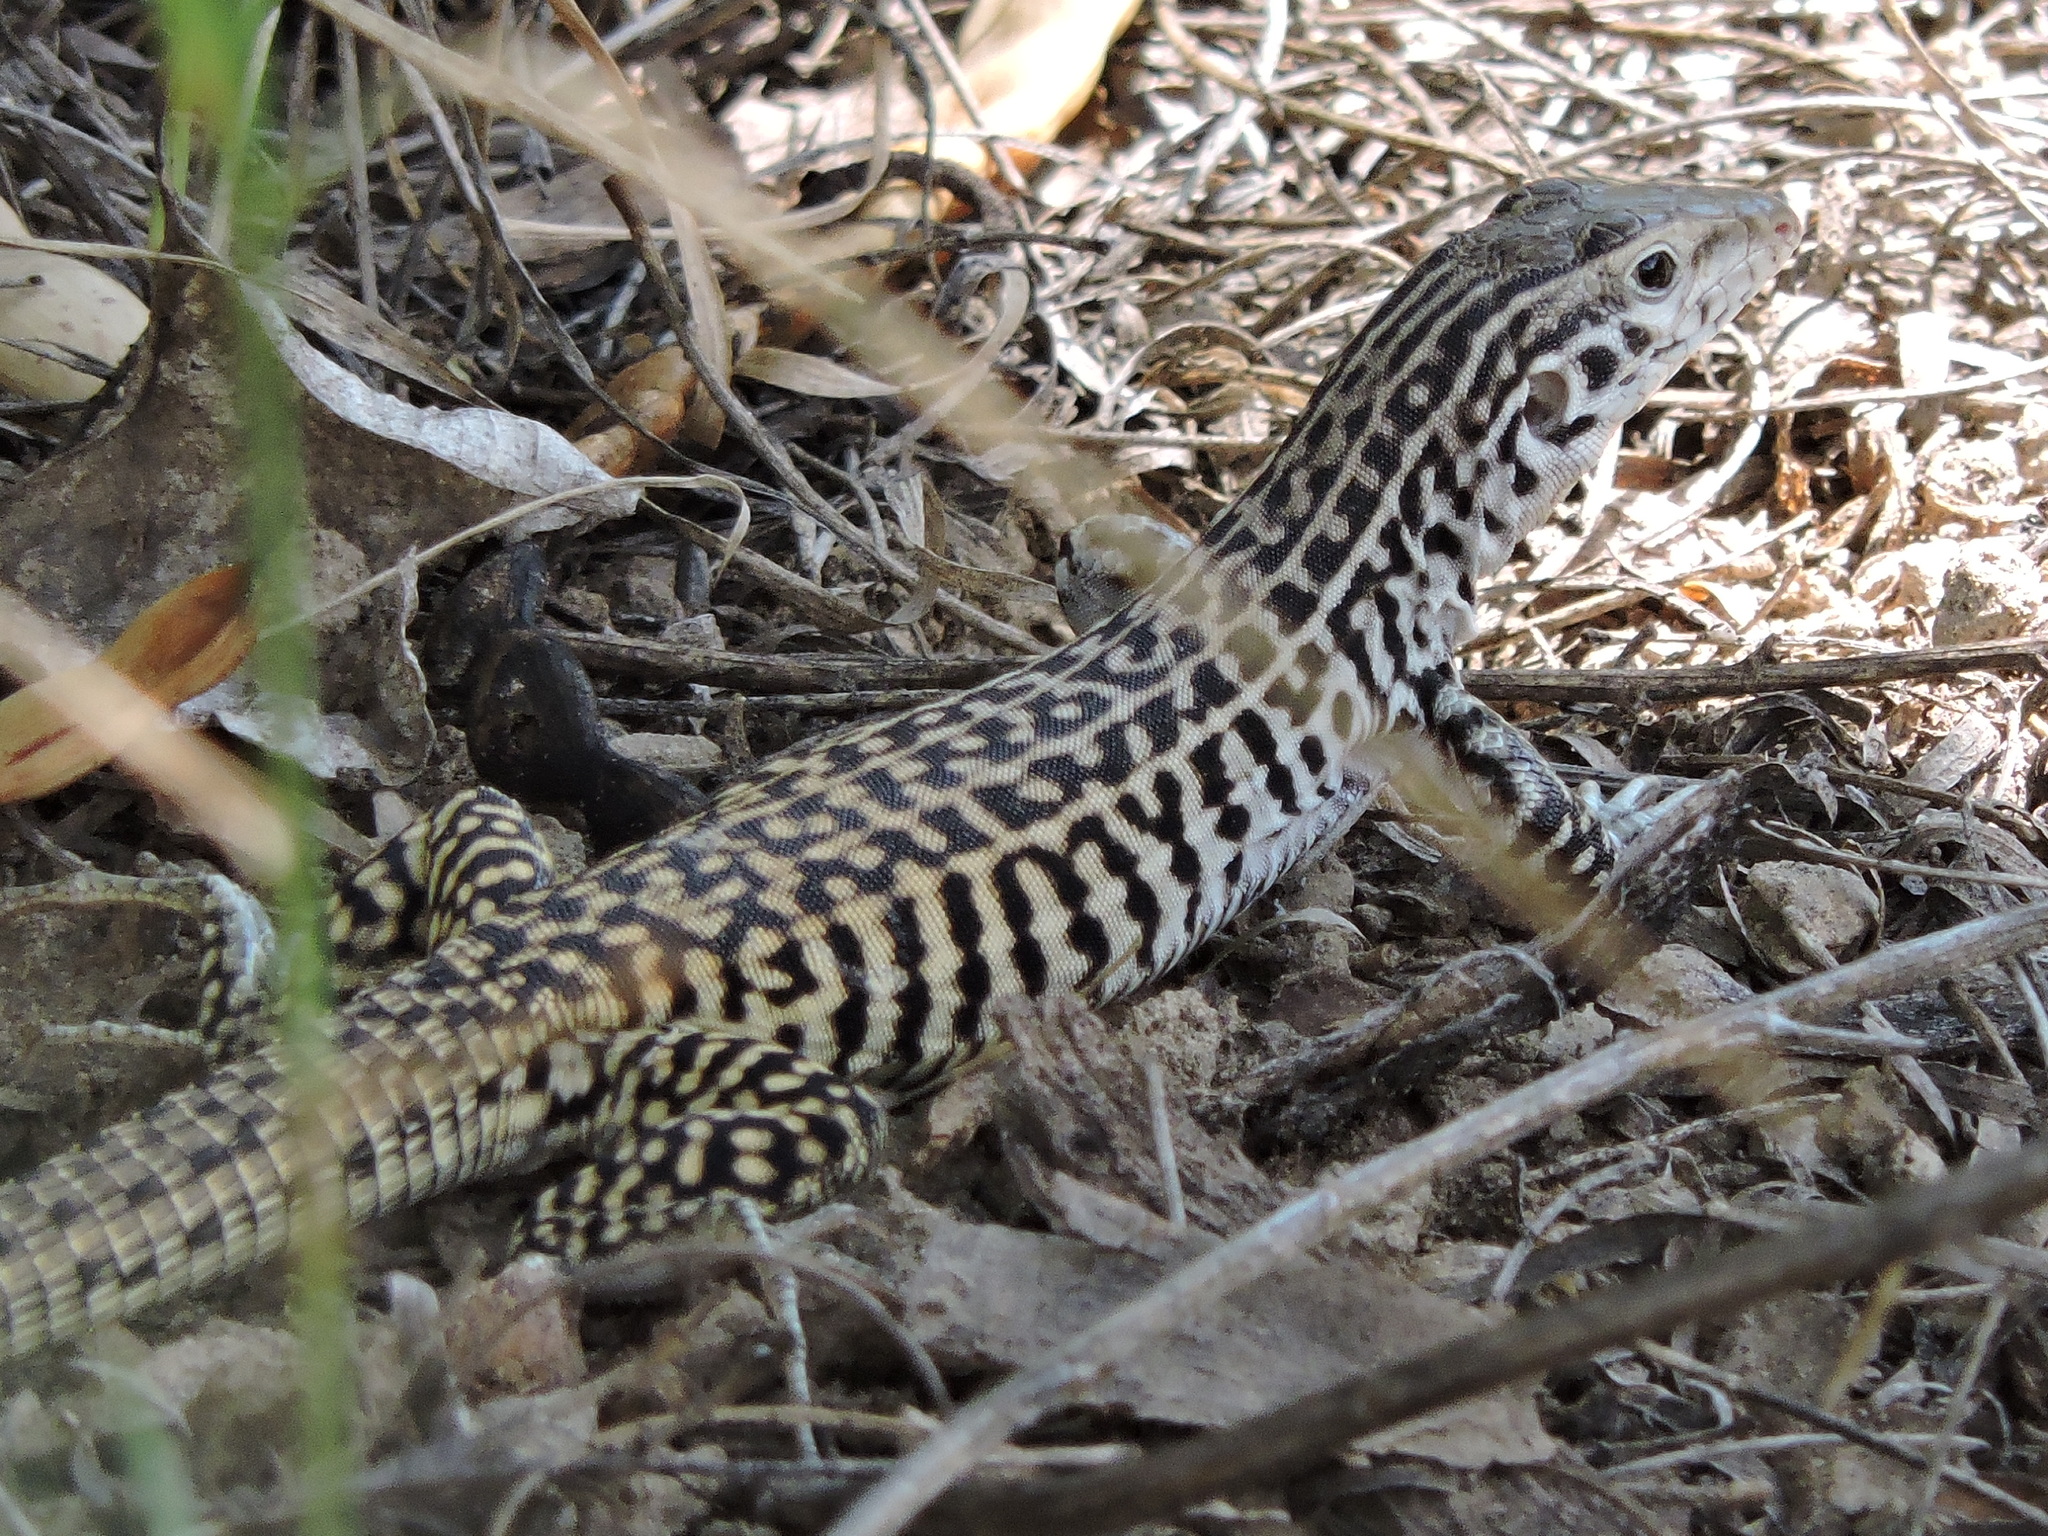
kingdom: Animalia
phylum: Chordata
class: Squamata
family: Teiidae
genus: Aspidoscelis
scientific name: Aspidoscelis tesselatus
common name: Common checkered whiptail [tesselata]
